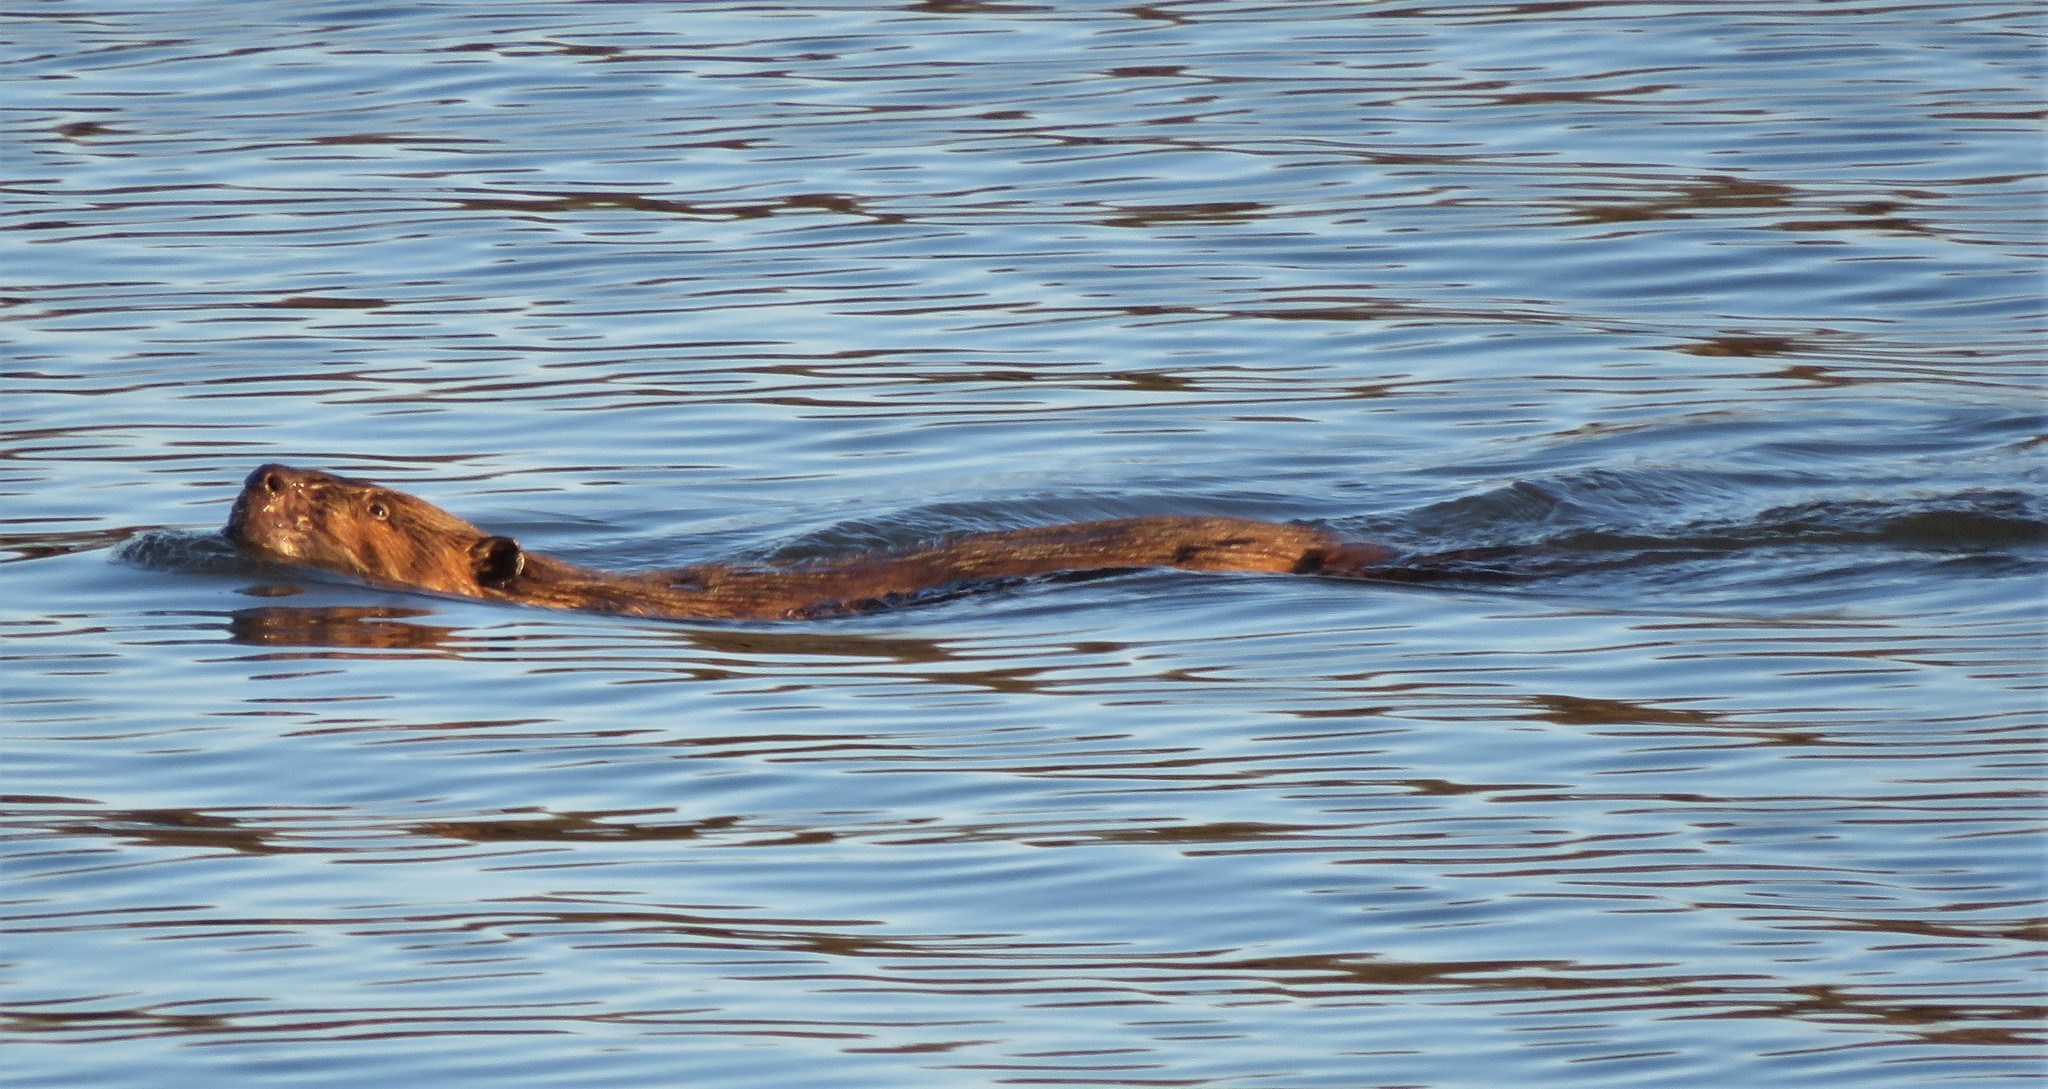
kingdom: Animalia
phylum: Chordata
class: Mammalia
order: Rodentia
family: Castoridae
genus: Castor
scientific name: Castor canadensis
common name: American beaver
